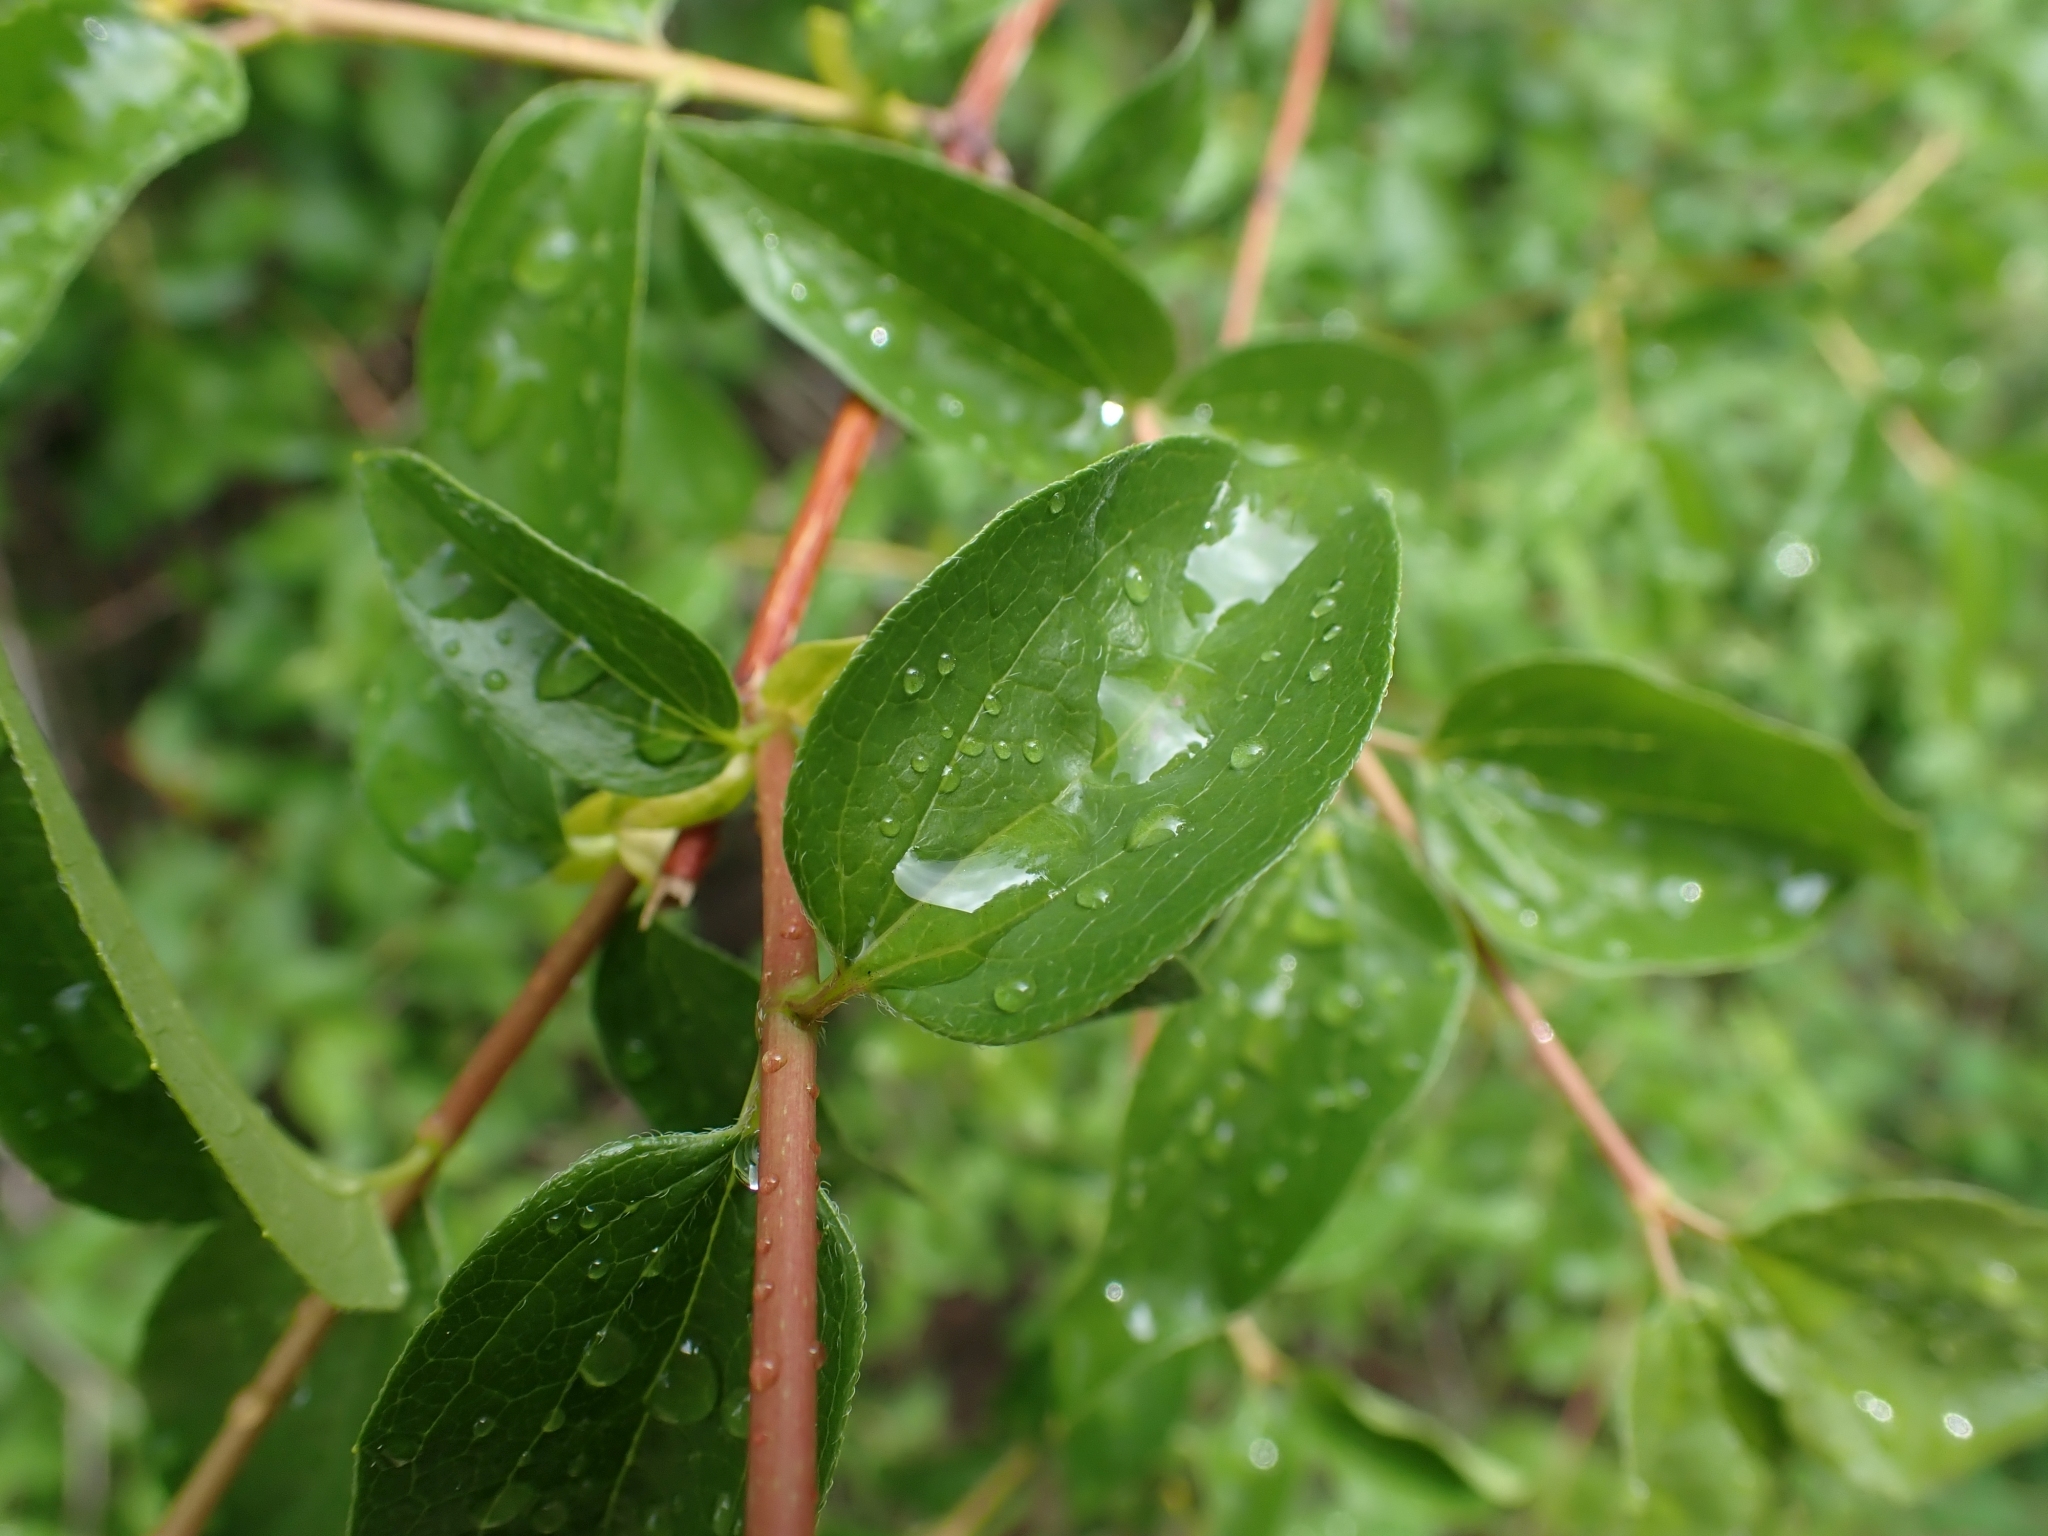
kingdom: Plantae
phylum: Tracheophyta
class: Magnoliopsida
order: Cornales
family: Hydrangeaceae
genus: Philadelphus
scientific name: Philadelphus lewisii
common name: Lewis's mock orange
